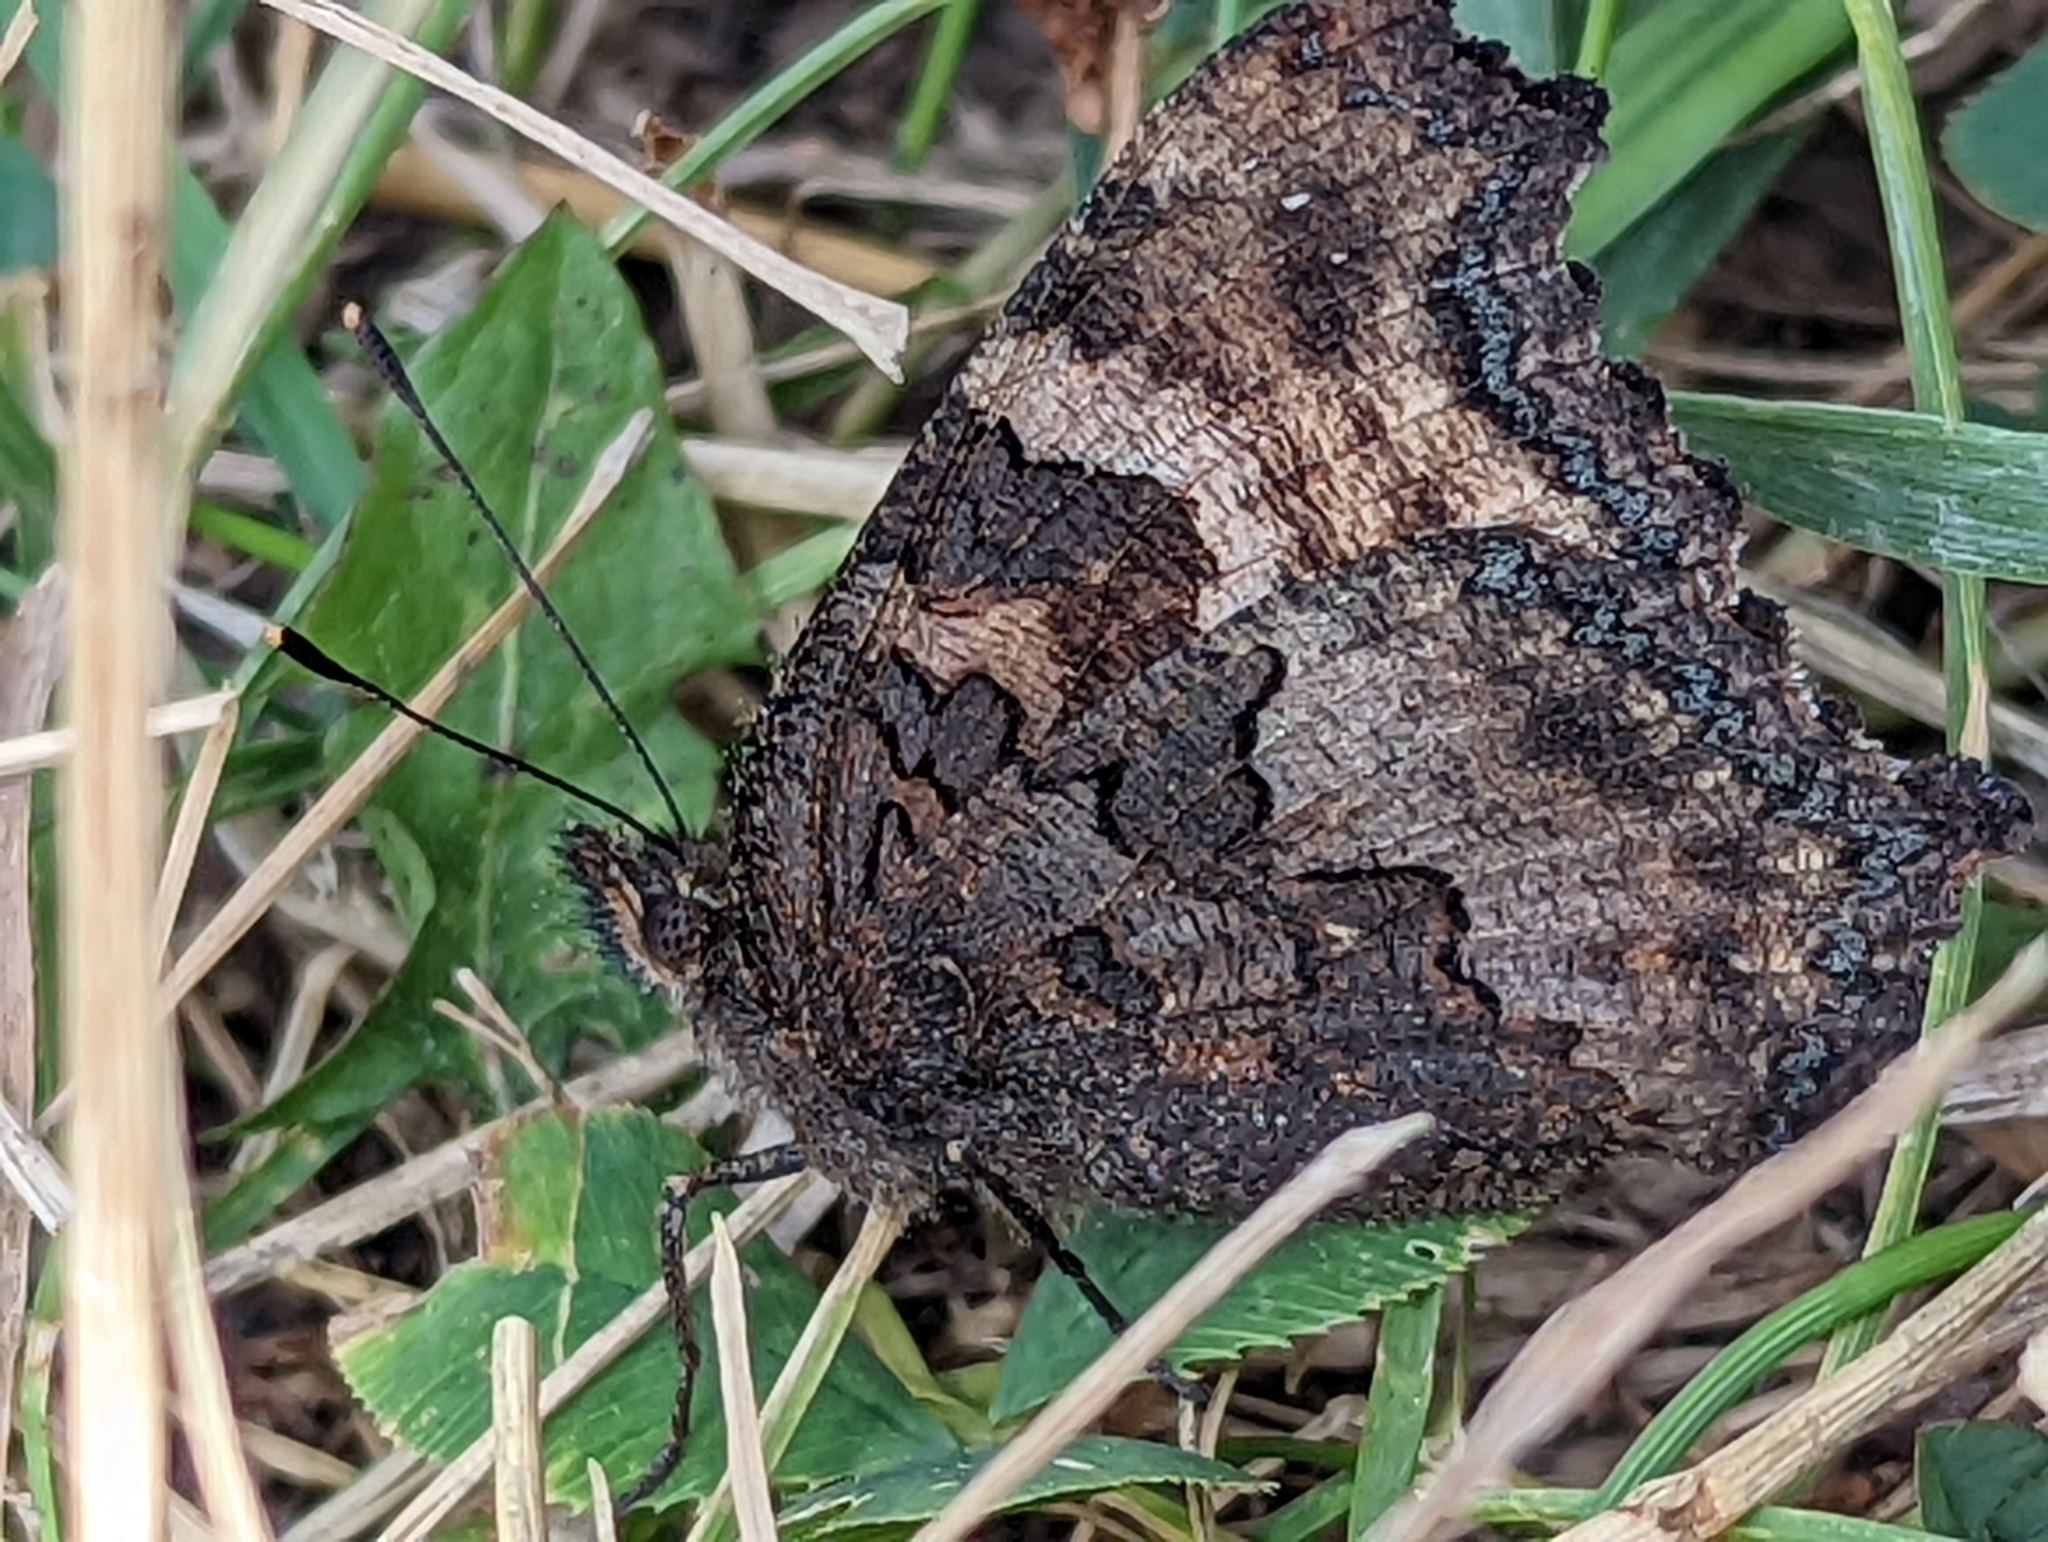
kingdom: Animalia
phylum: Arthropoda
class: Insecta
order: Lepidoptera
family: Nymphalidae
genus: Nymphalis
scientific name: Nymphalis californica
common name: California tortoiseshell
